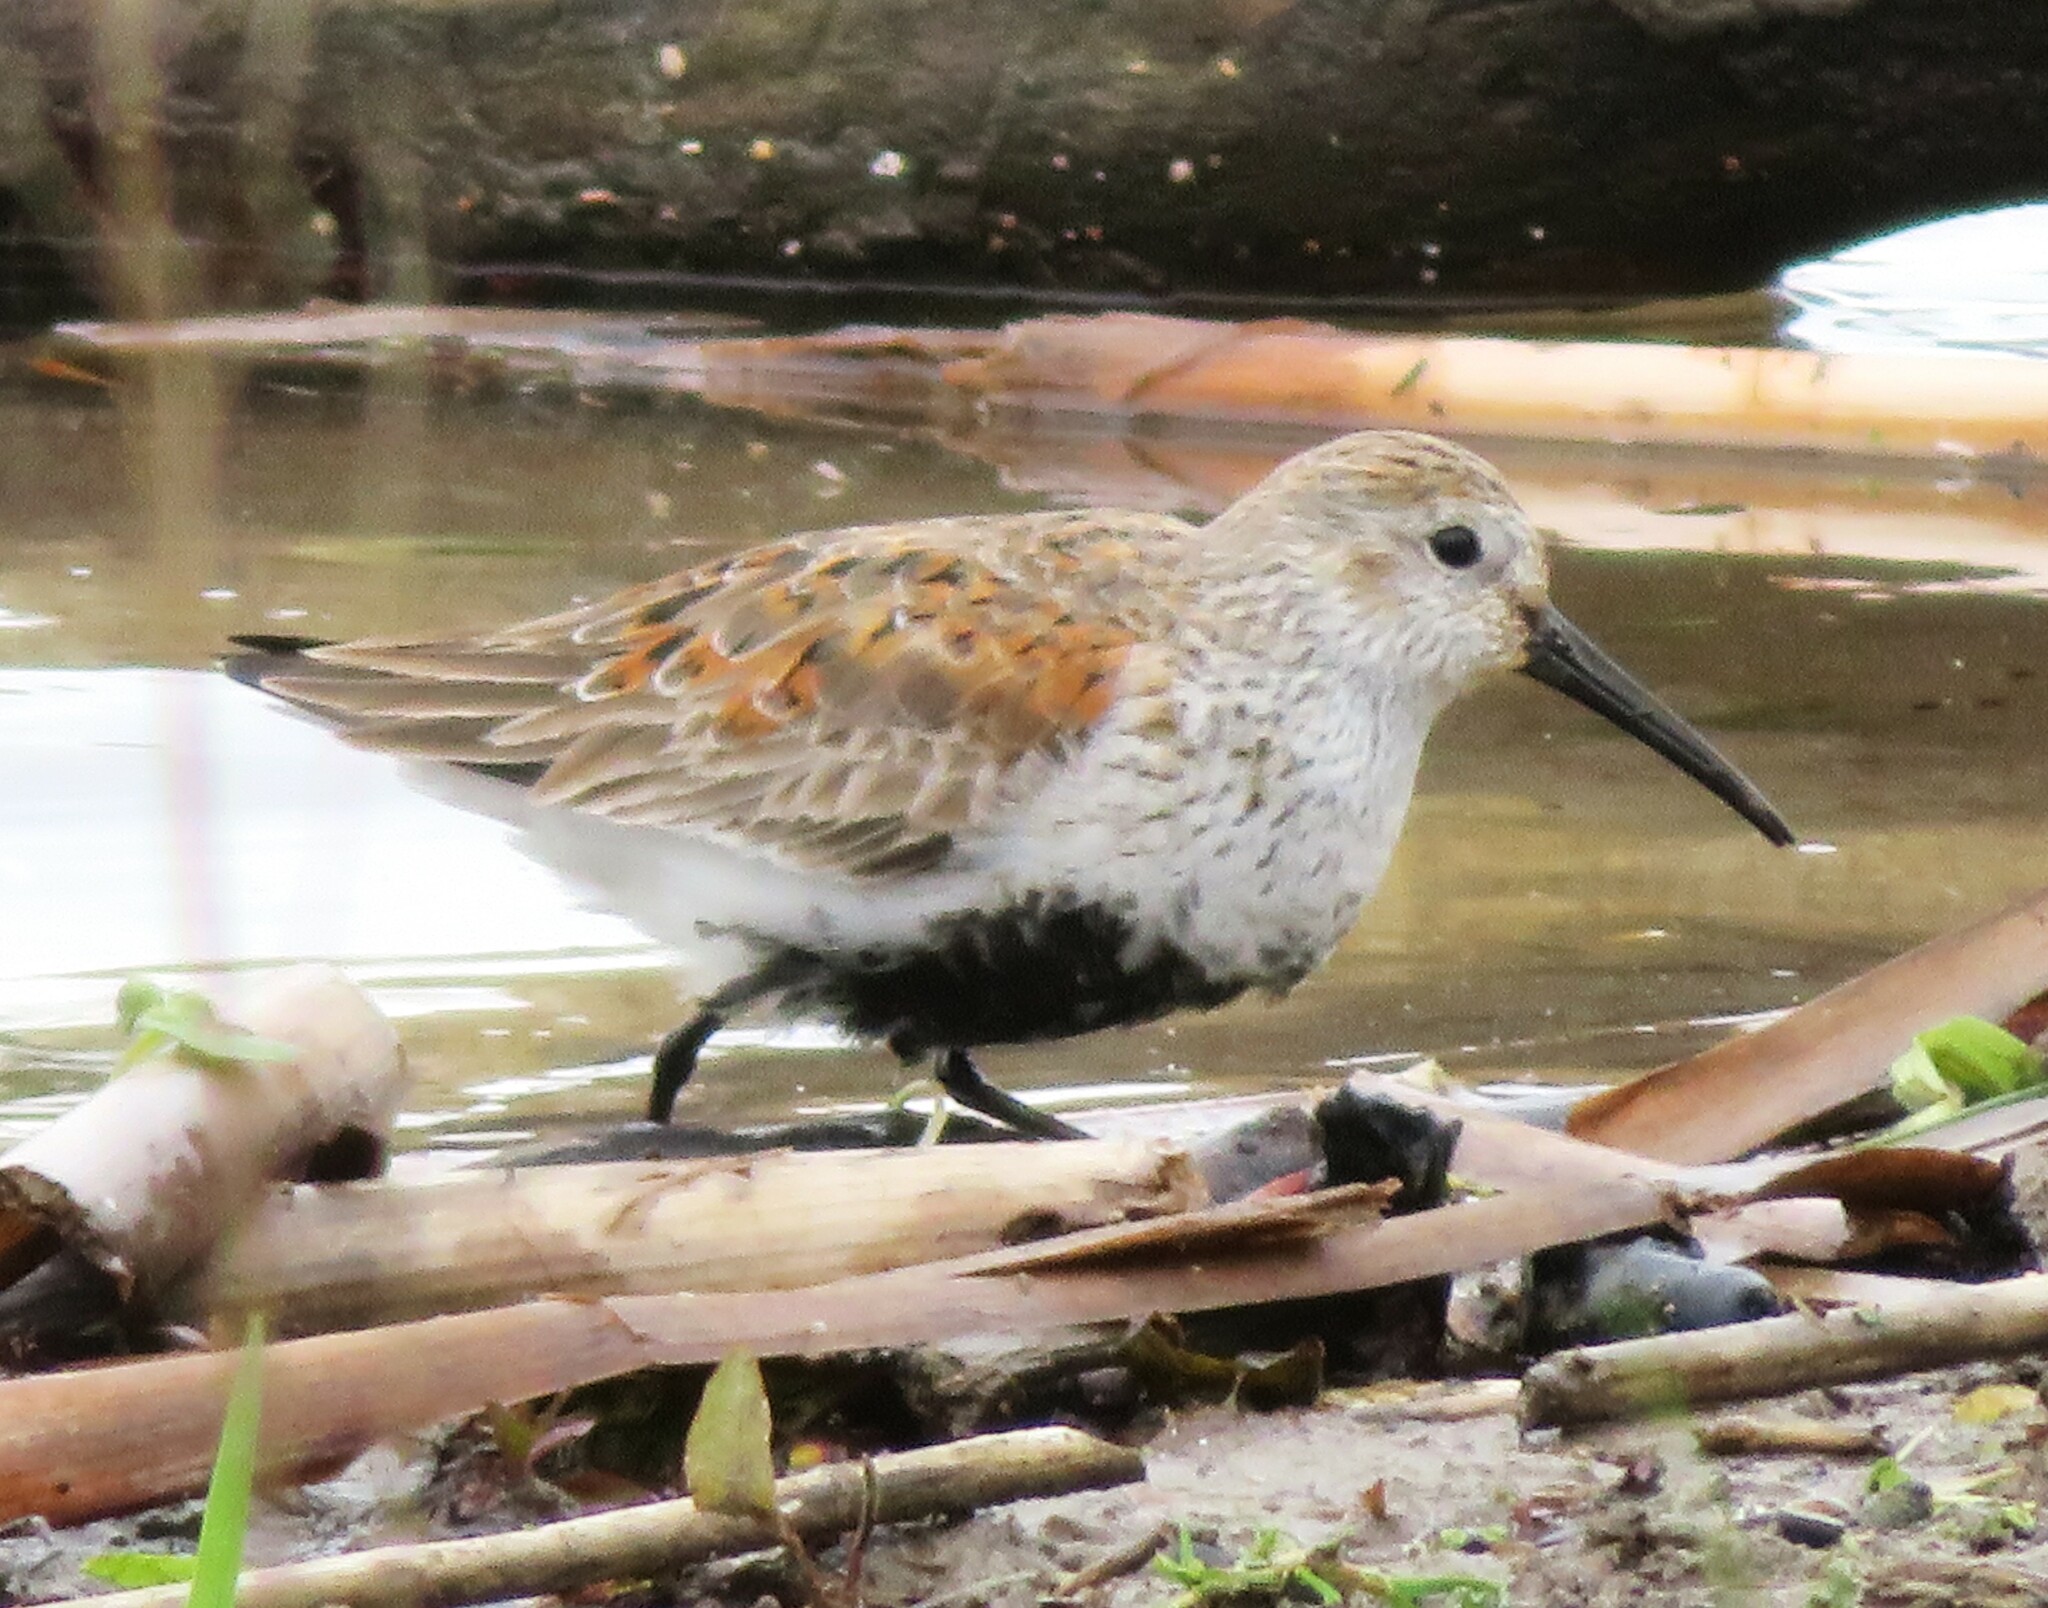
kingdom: Animalia
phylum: Chordata
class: Aves
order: Charadriiformes
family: Scolopacidae
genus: Calidris
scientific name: Calidris alpina
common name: Dunlin
